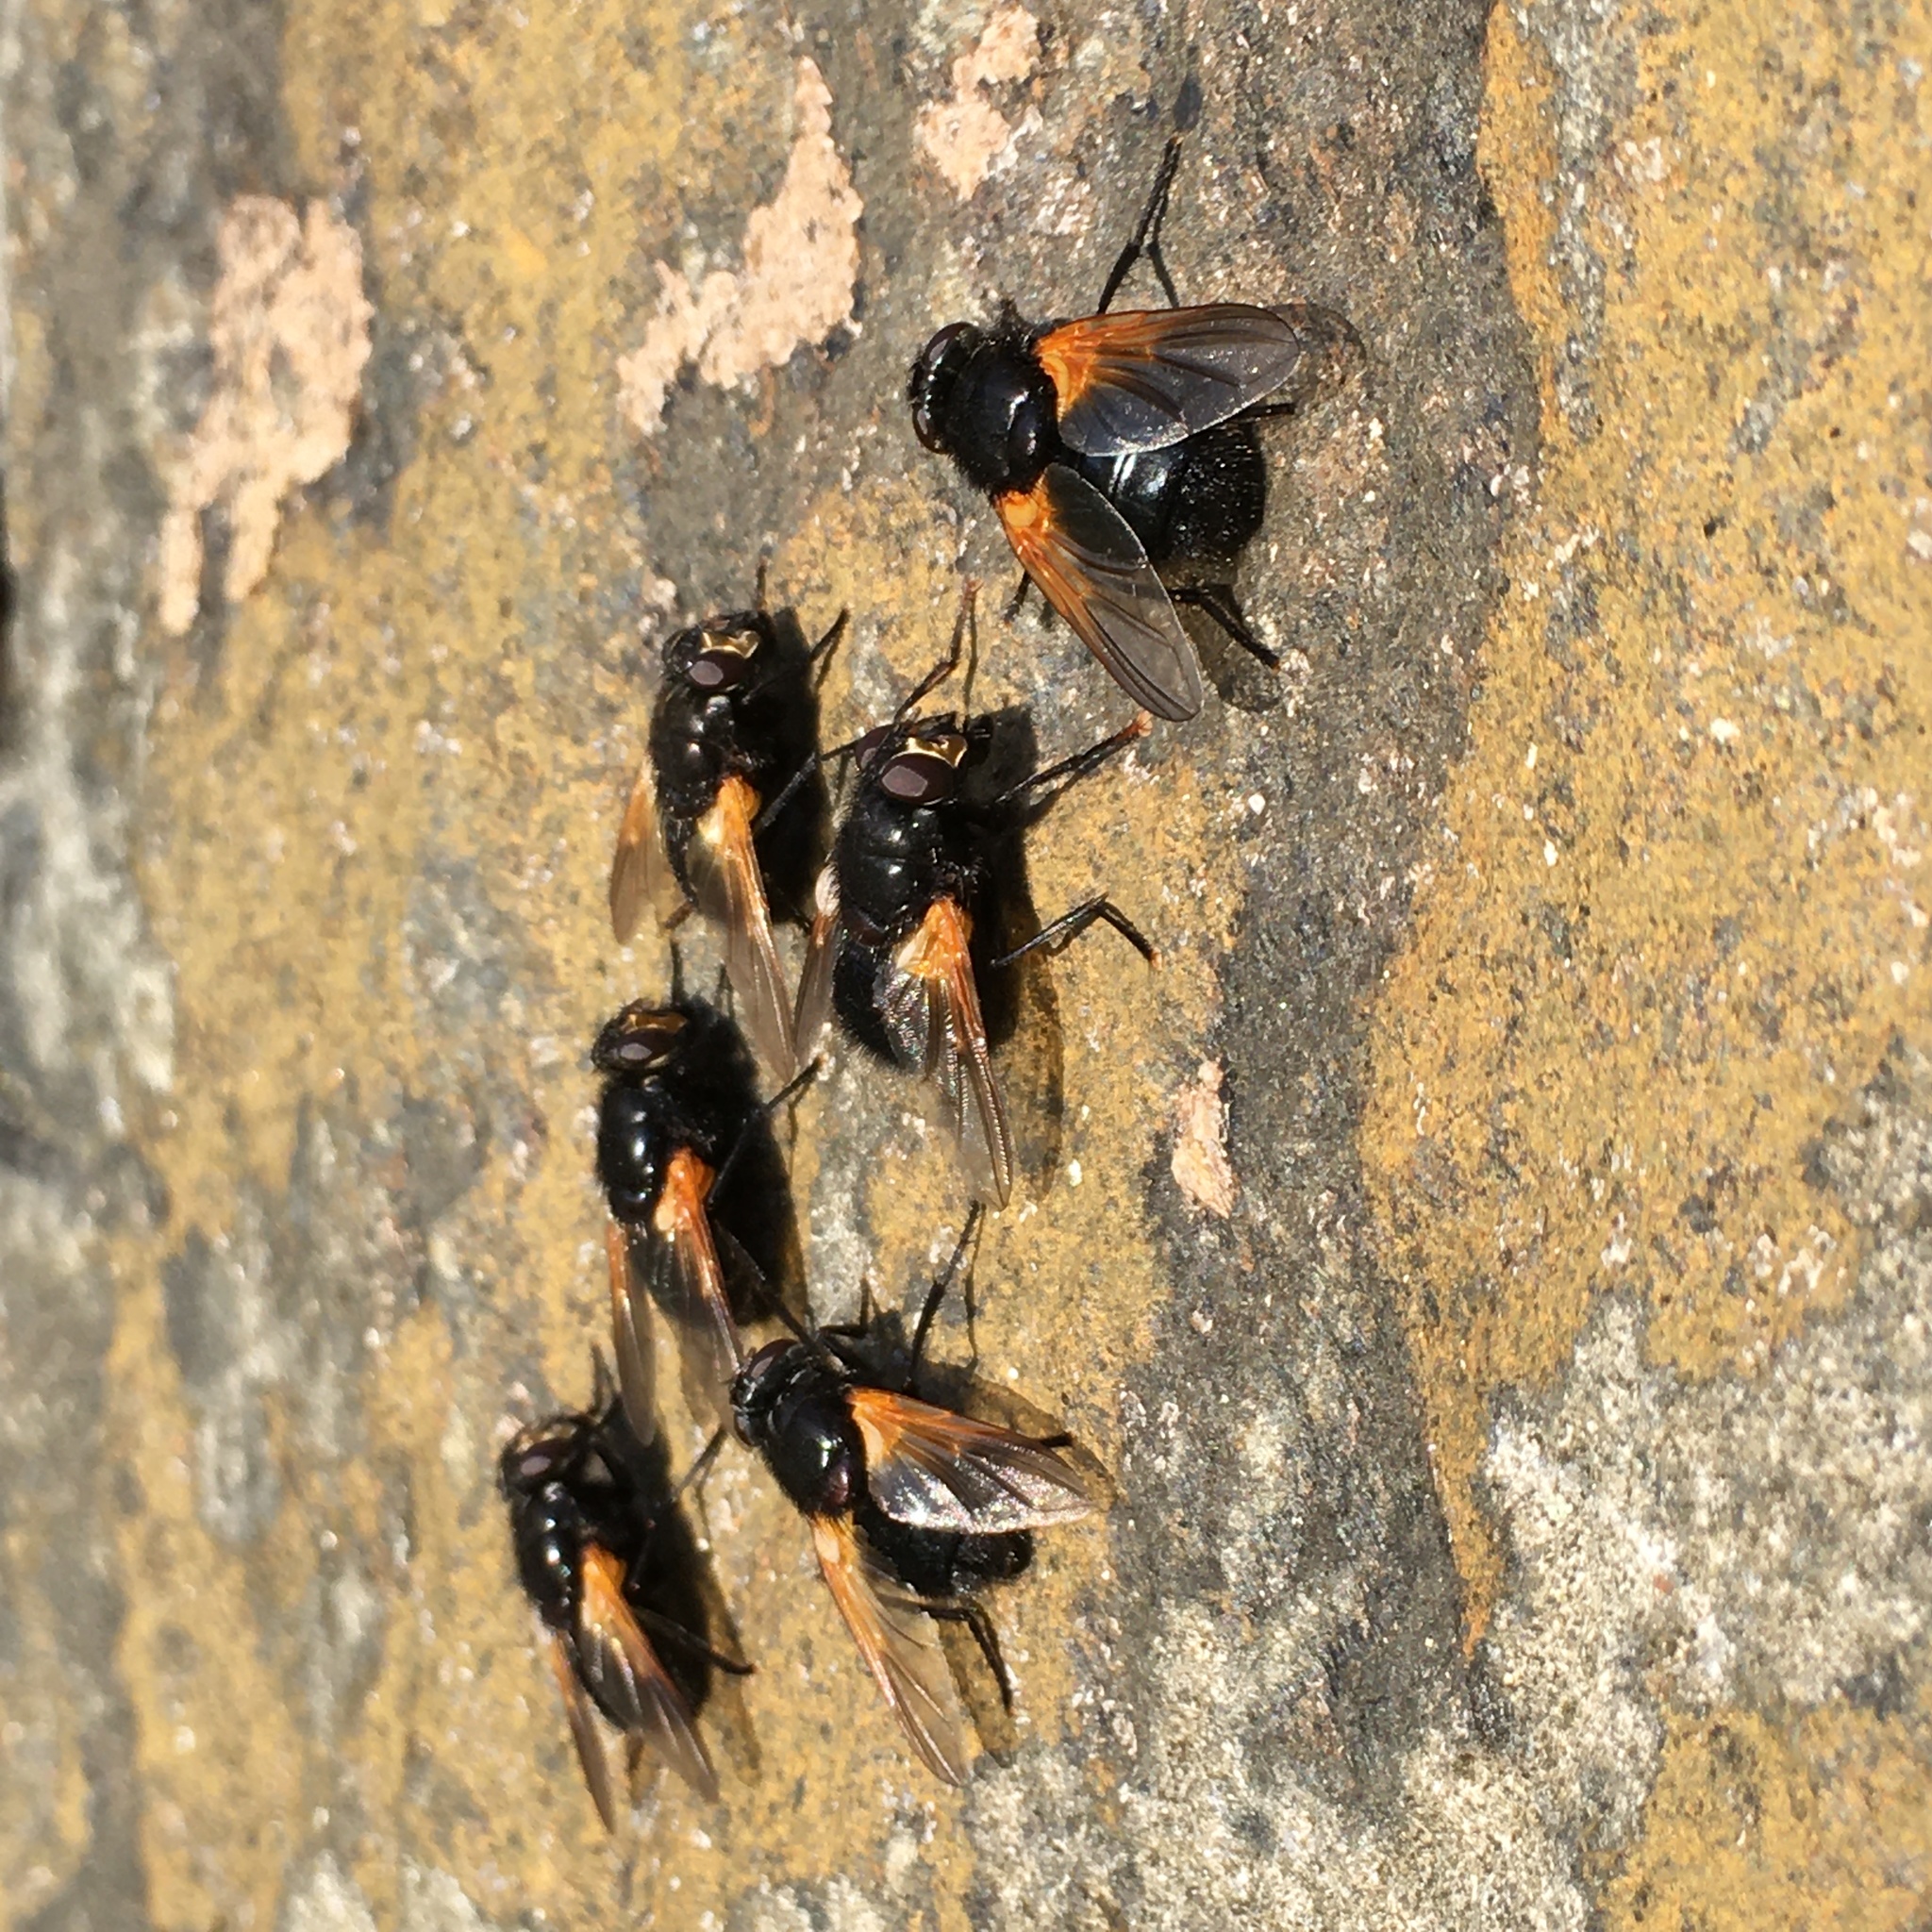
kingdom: Animalia
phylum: Arthropoda
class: Insecta
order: Diptera
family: Muscidae
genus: Mesembrina
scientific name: Mesembrina meridiana
